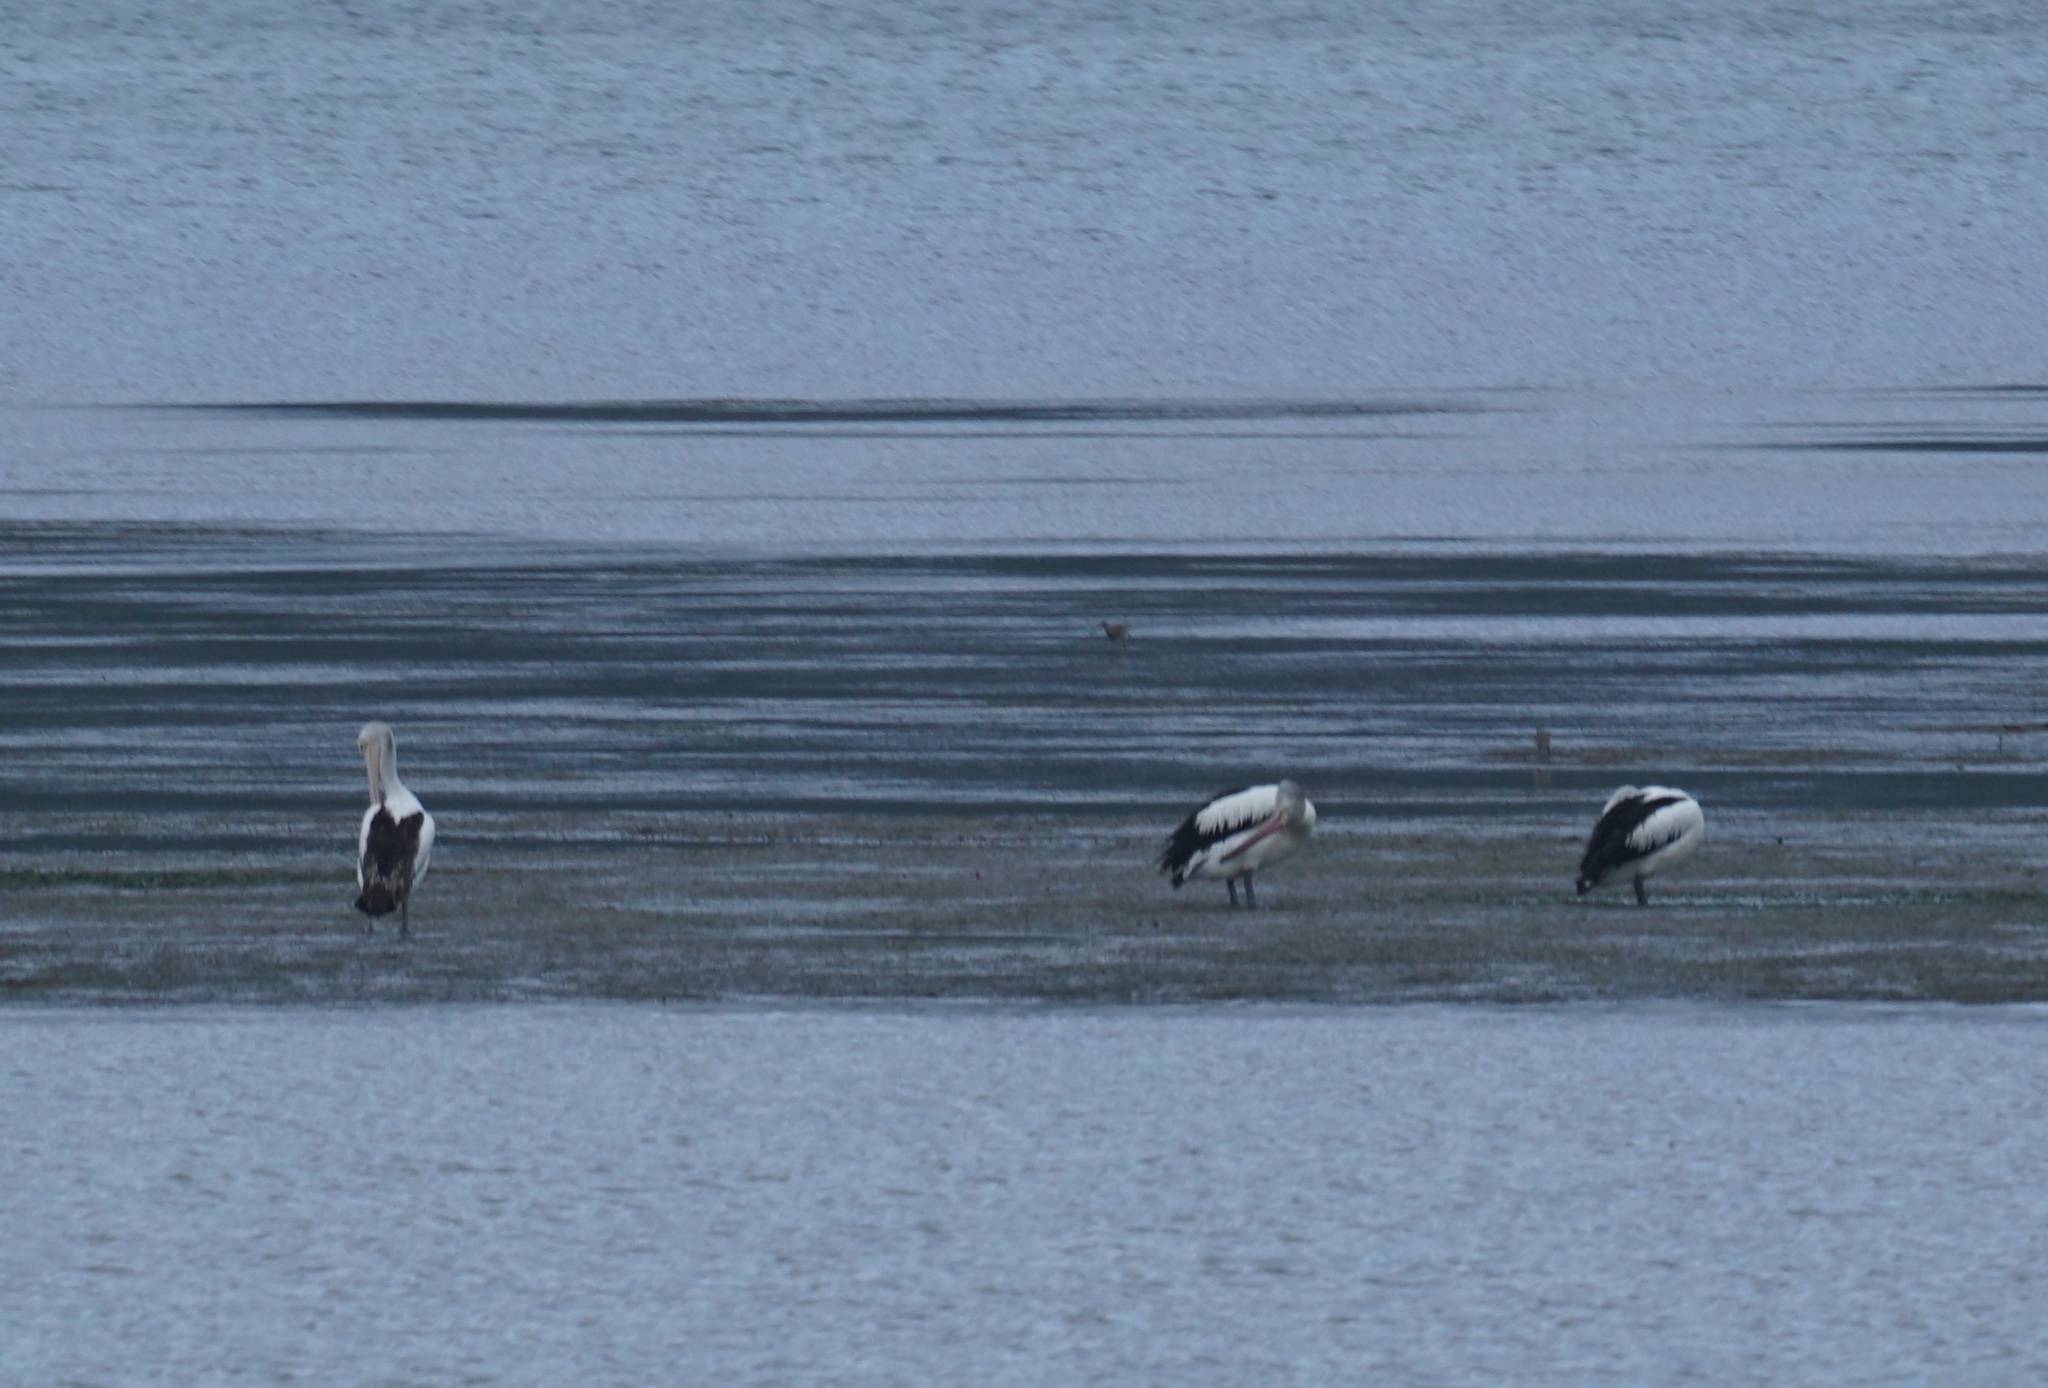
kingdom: Animalia
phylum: Chordata
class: Aves
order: Pelecaniformes
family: Pelecanidae
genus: Pelecanus
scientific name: Pelecanus conspicillatus
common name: Australian pelican
